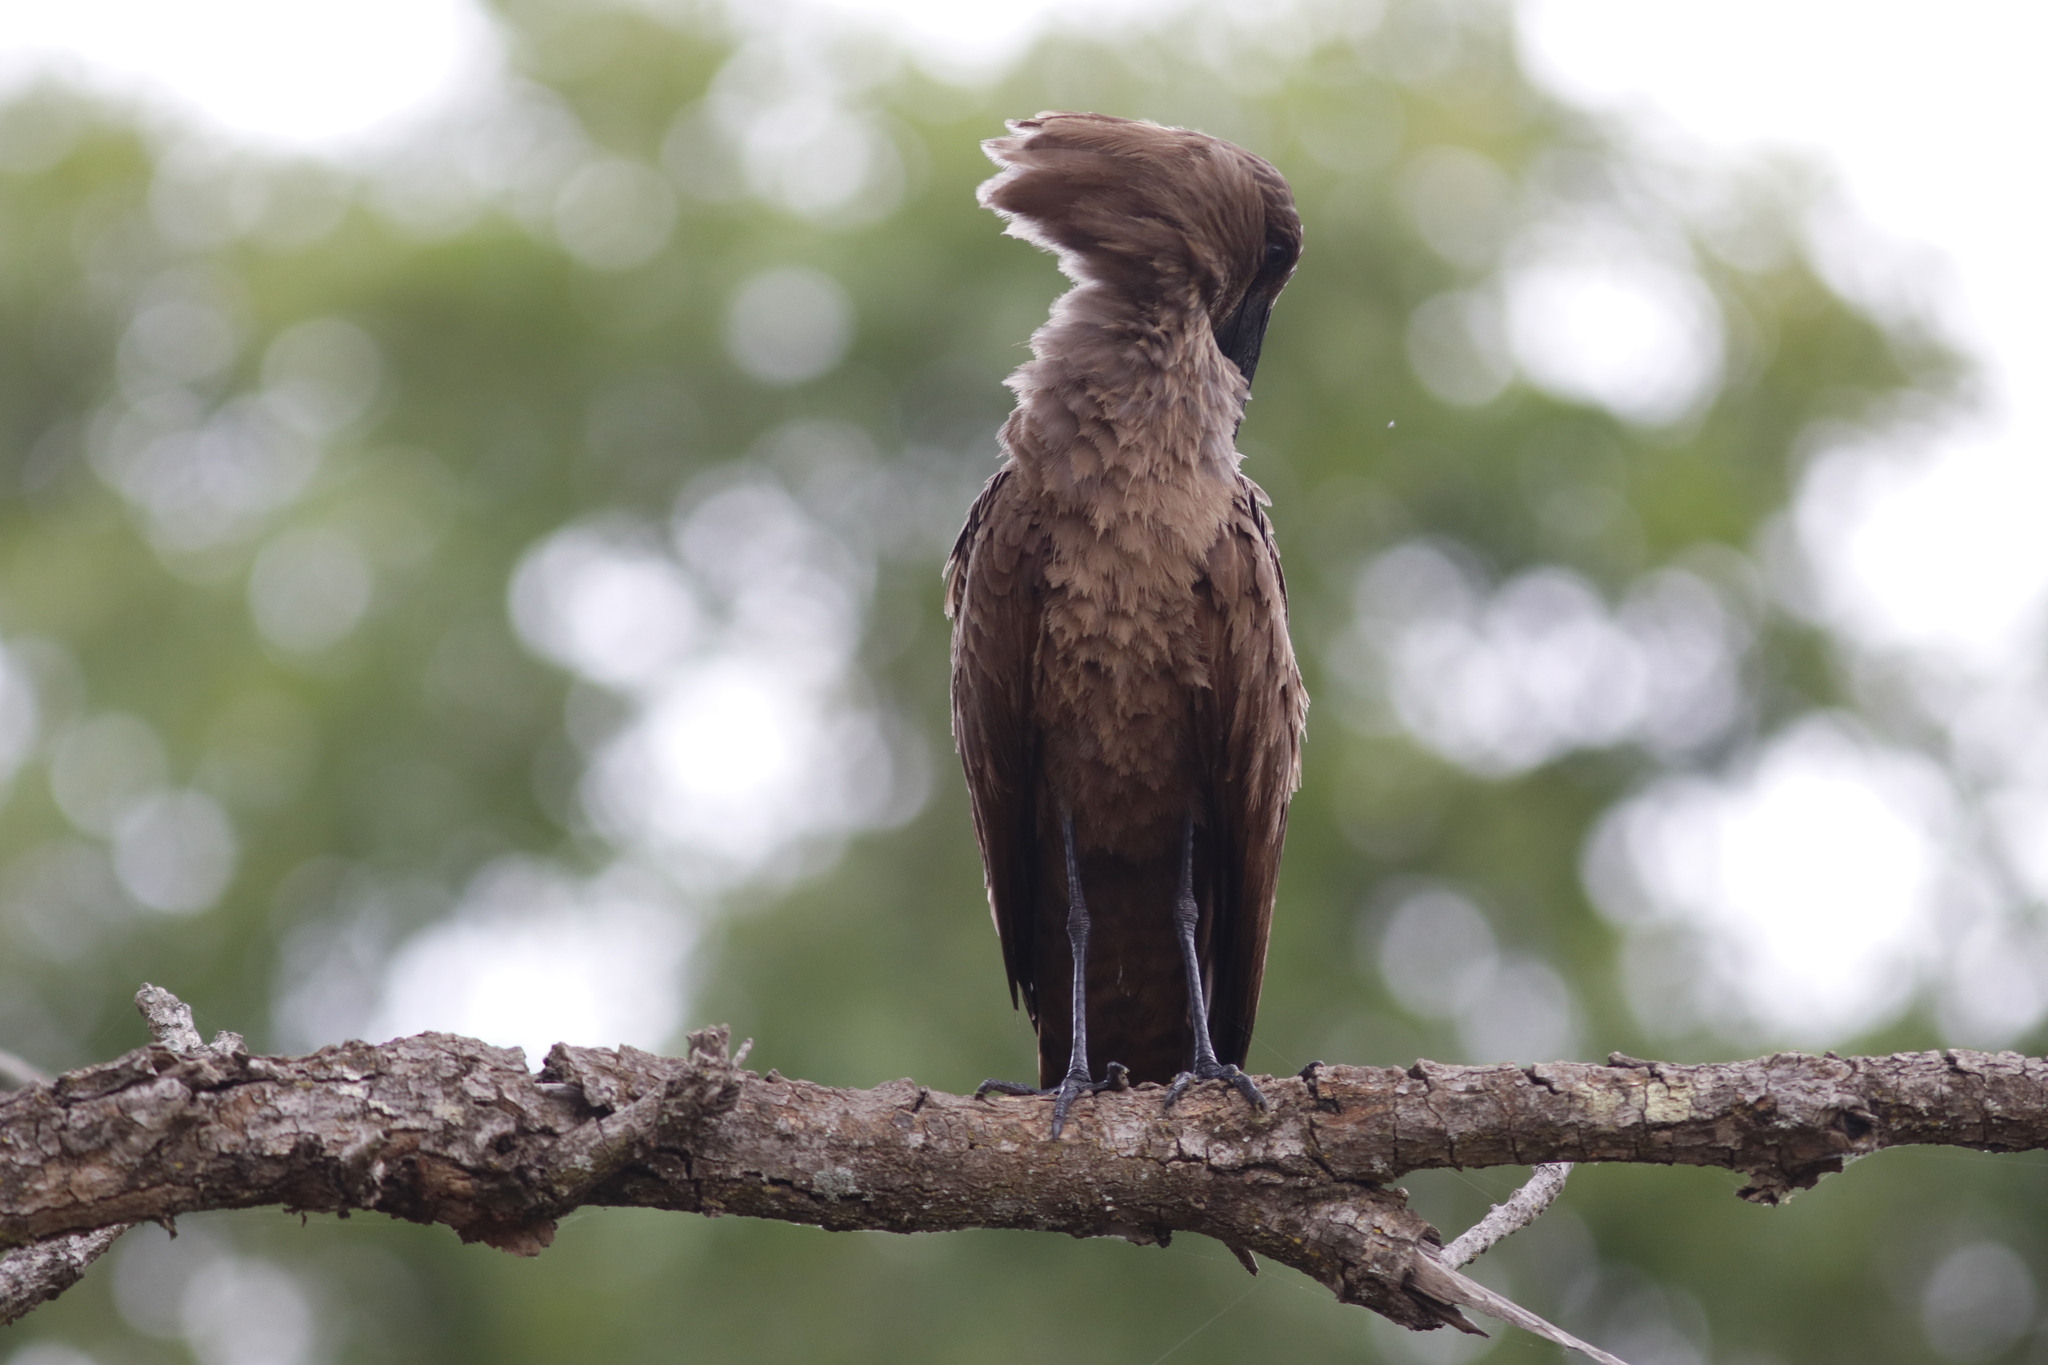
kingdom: Animalia
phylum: Chordata
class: Aves
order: Pelecaniformes
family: Scopidae
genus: Scopus
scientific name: Scopus umbretta
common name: Hamerkop
